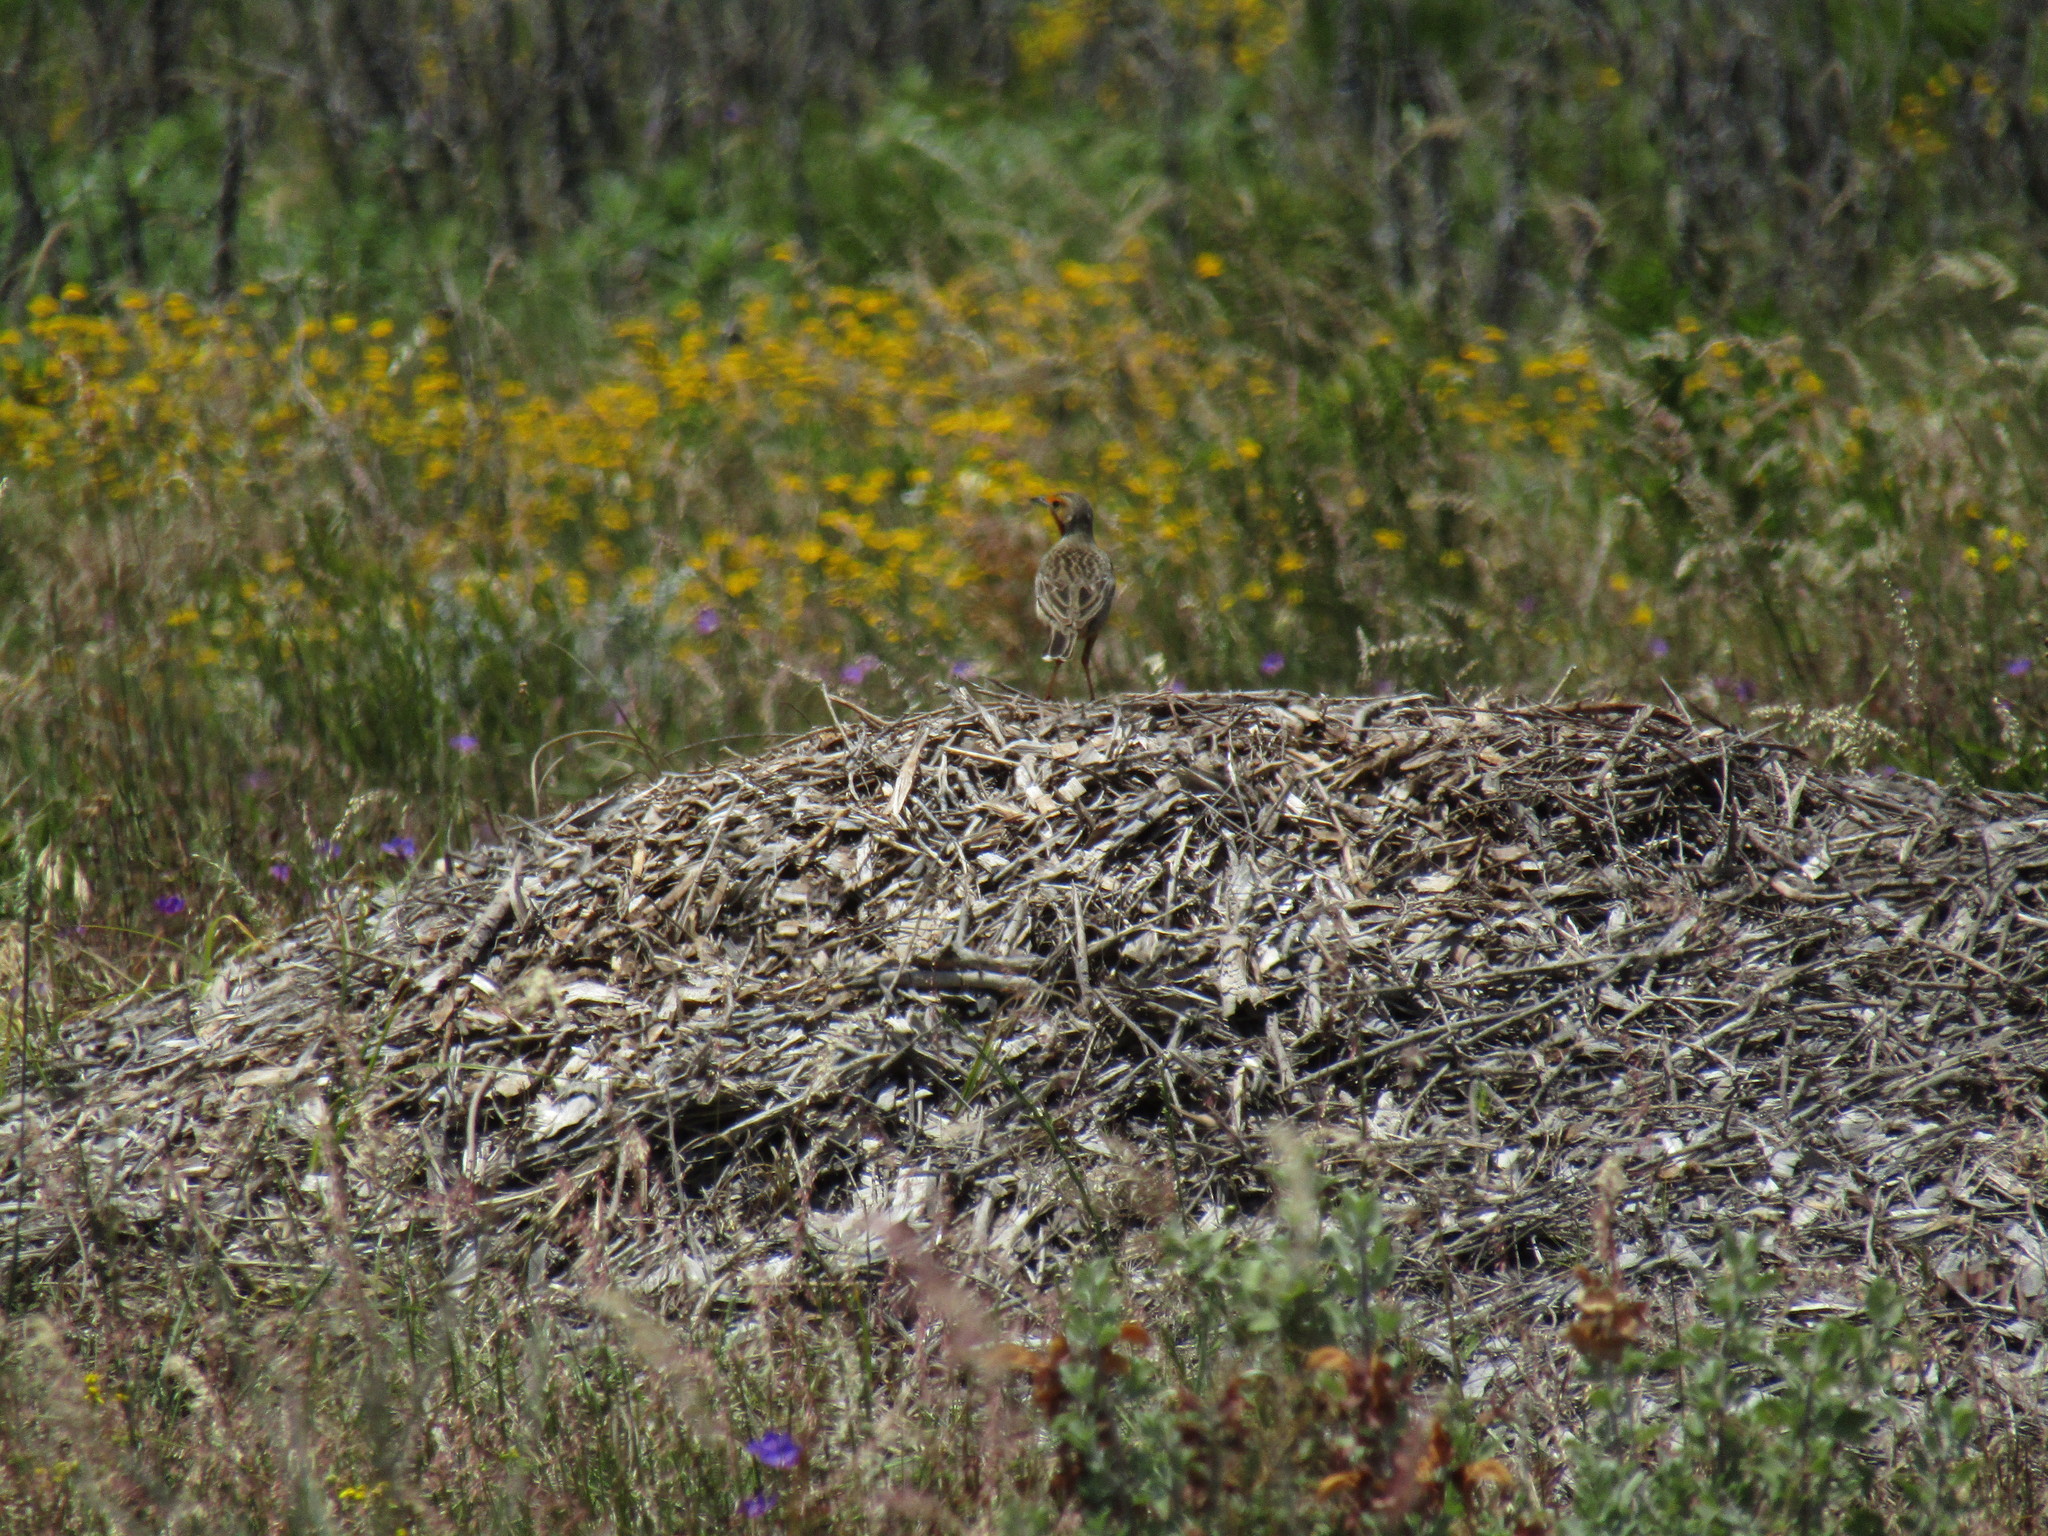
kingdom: Animalia
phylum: Chordata
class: Aves
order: Passeriformes
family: Motacillidae
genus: Macronyx
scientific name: Macronyx capensis
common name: Cape longclaw
